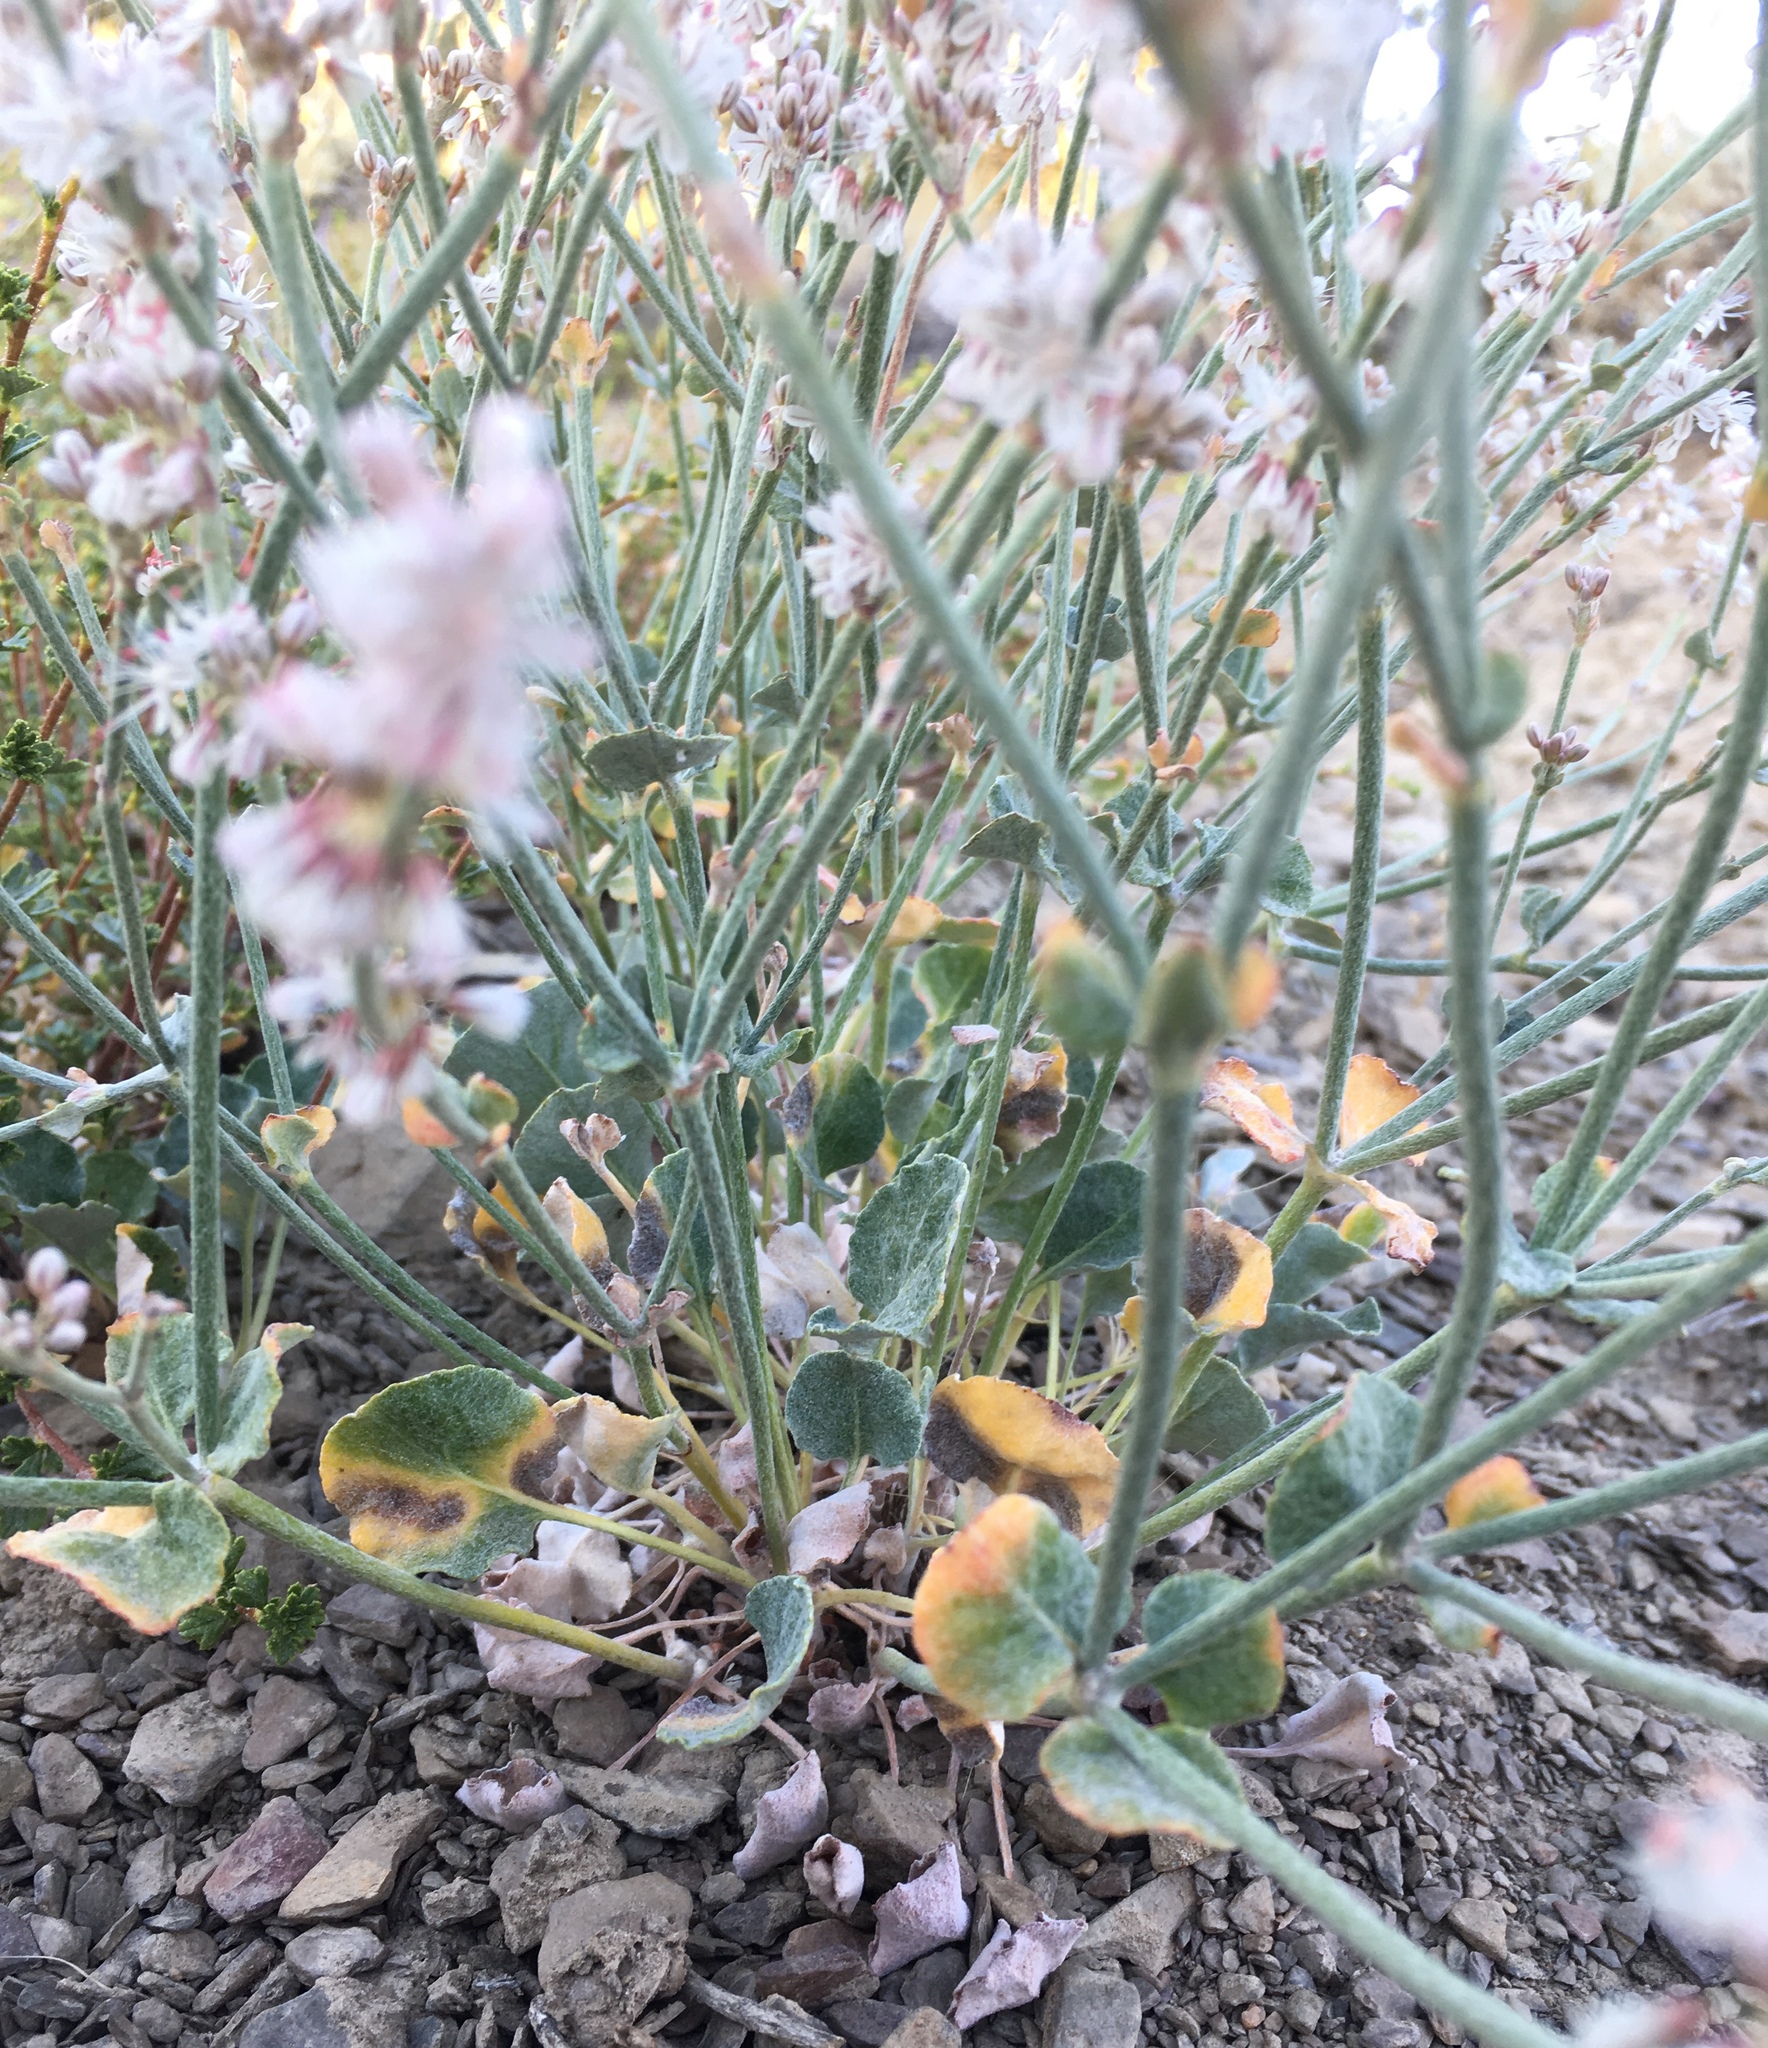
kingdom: Plantae
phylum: Tracheophyta
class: Magnoliopsida
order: Caryophyllales
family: Polygonaceae
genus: Eriogonum
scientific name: Eriogonum panamintense
